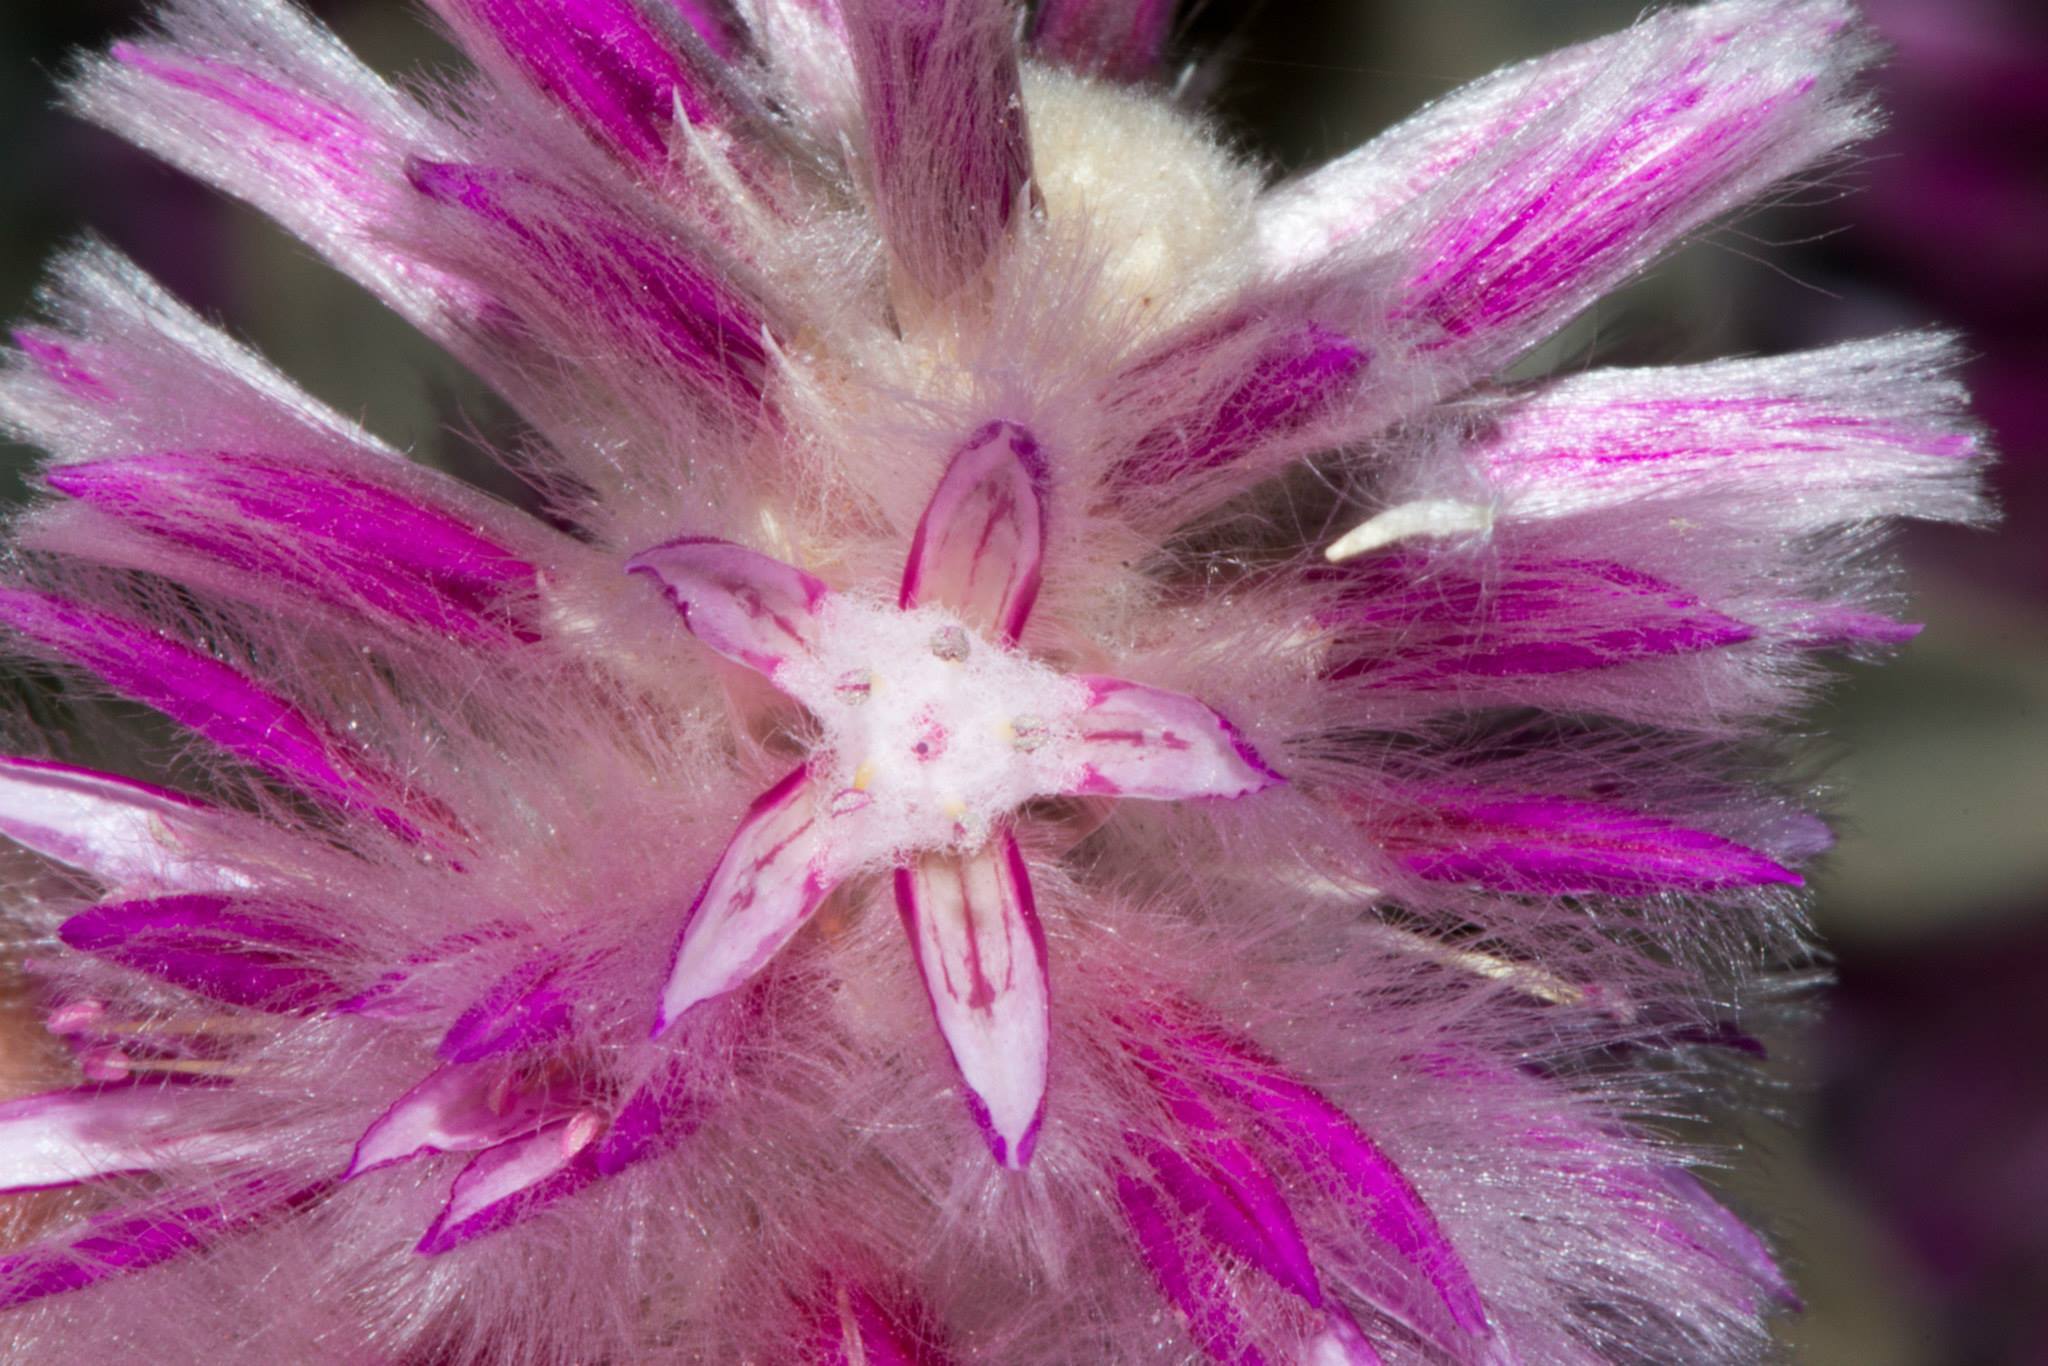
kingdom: Plantae
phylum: Tracheophyta
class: Magnoliopsida
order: Caryophyllales
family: Amaranthaceae
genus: Ptilotus
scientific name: Ptilotus rotundifolius
